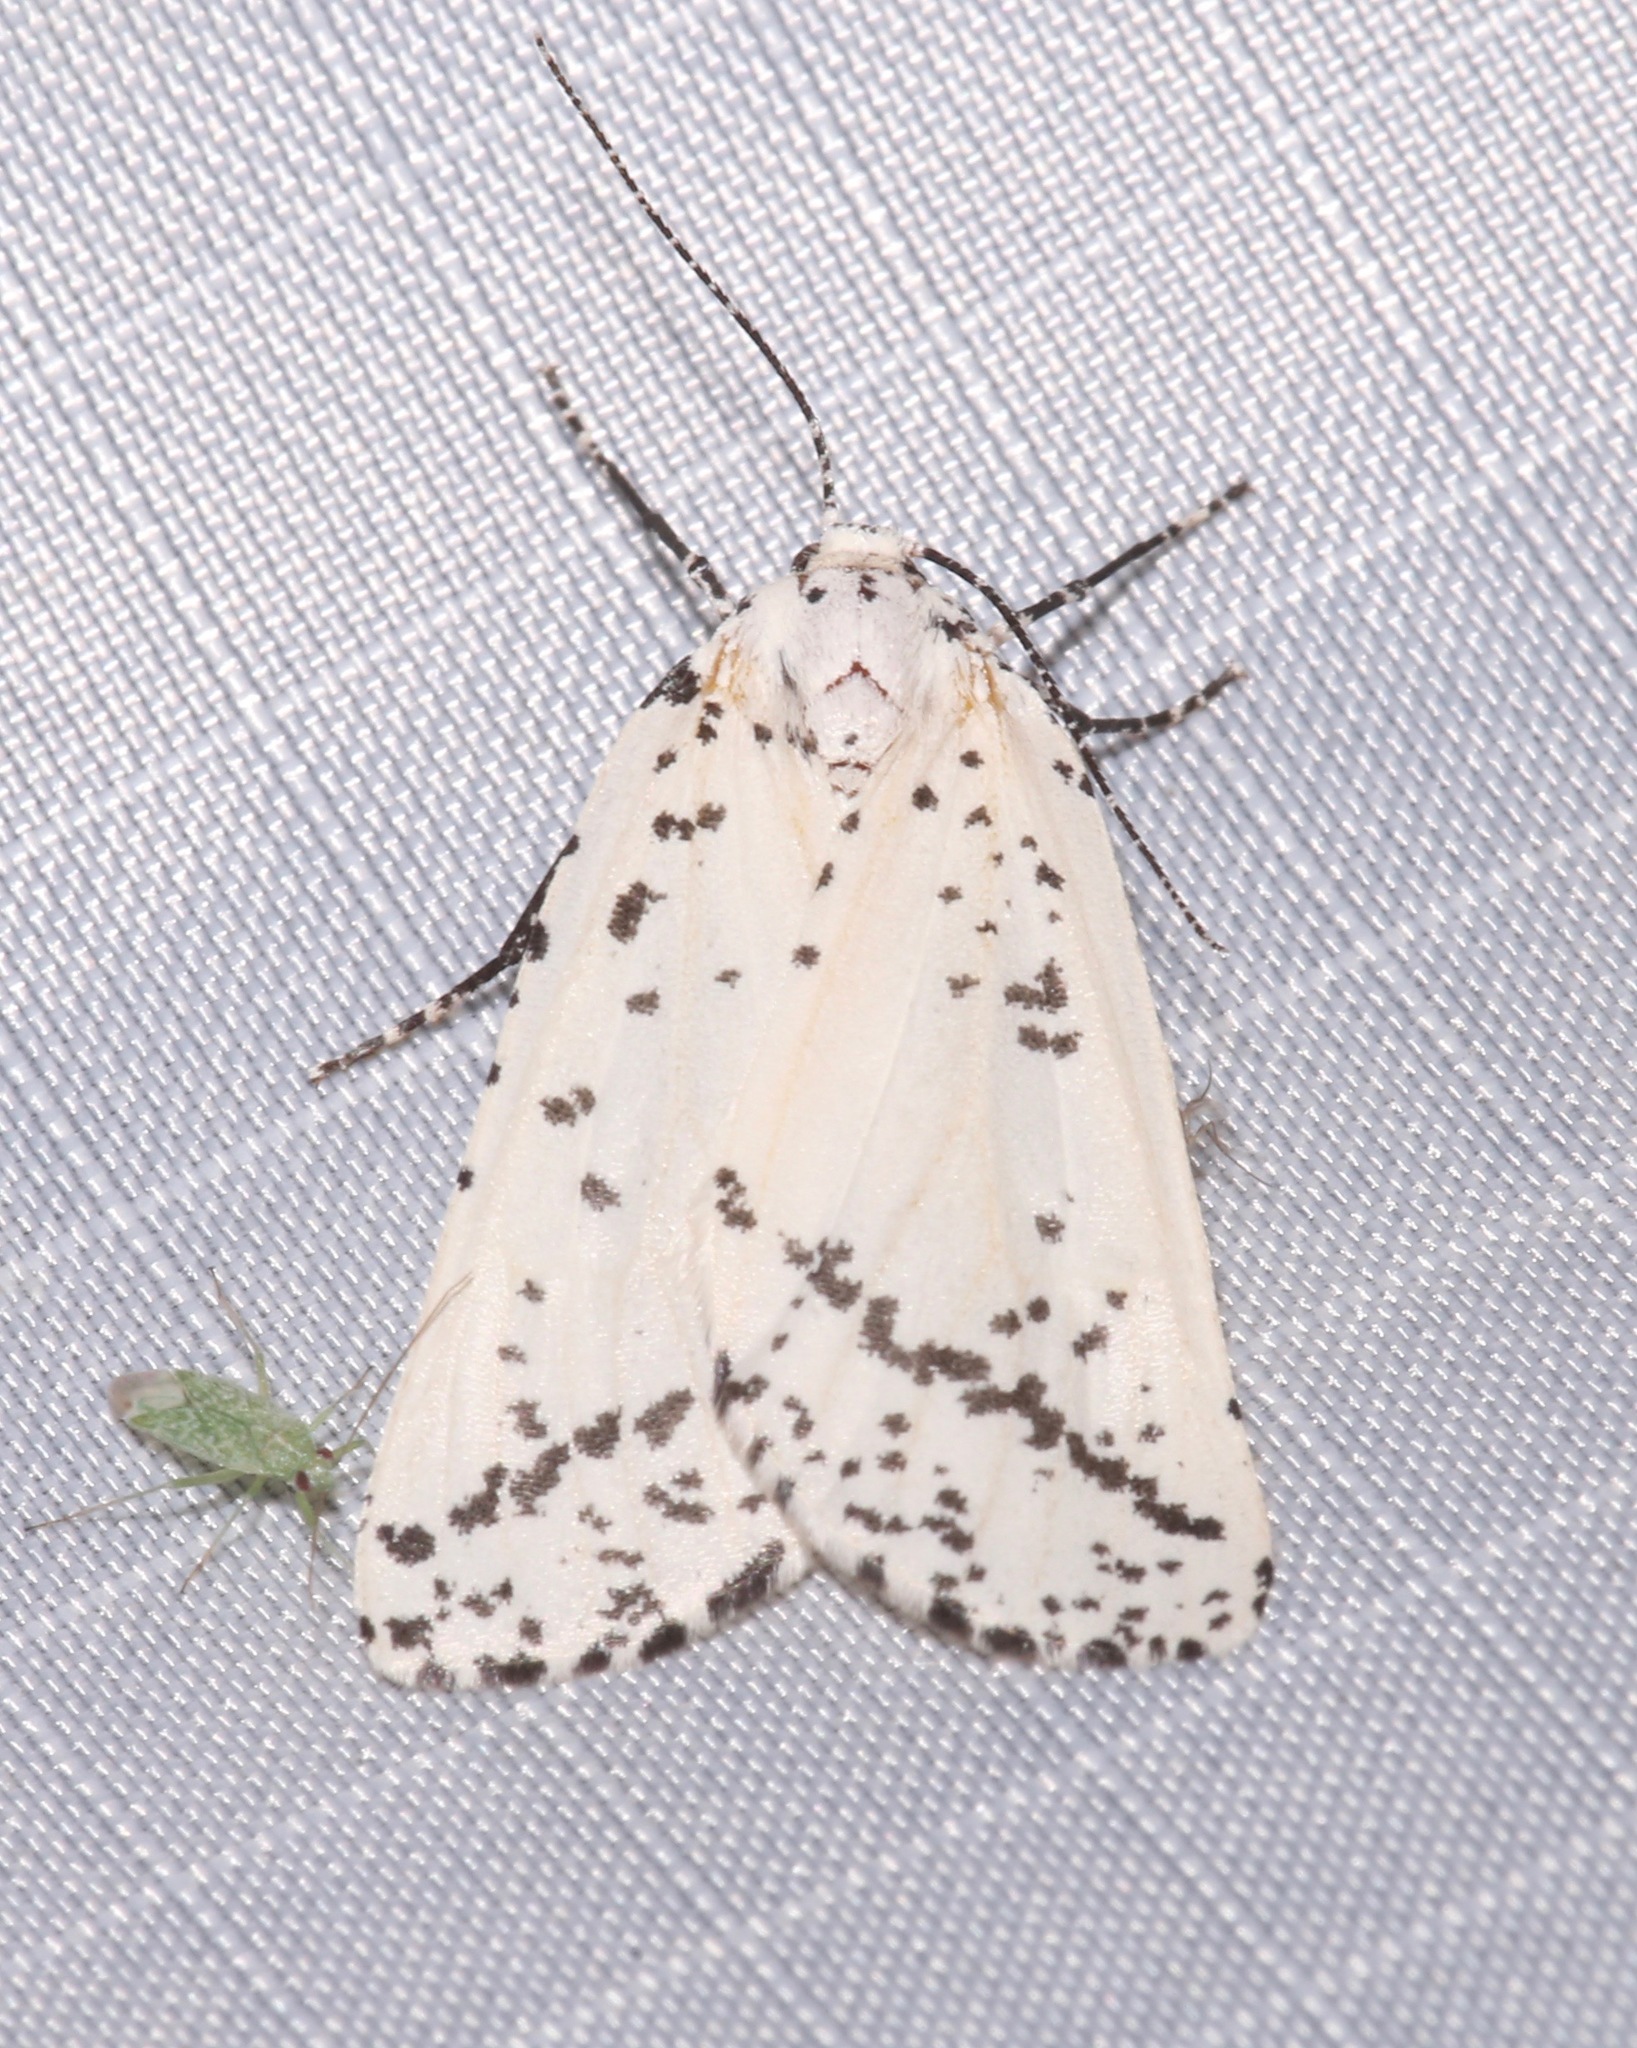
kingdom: Animalia
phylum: Arthropoda
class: Insecta
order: Lepidoptera
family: Geometridae
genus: Eucaterva
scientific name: Eucaterva variaria
